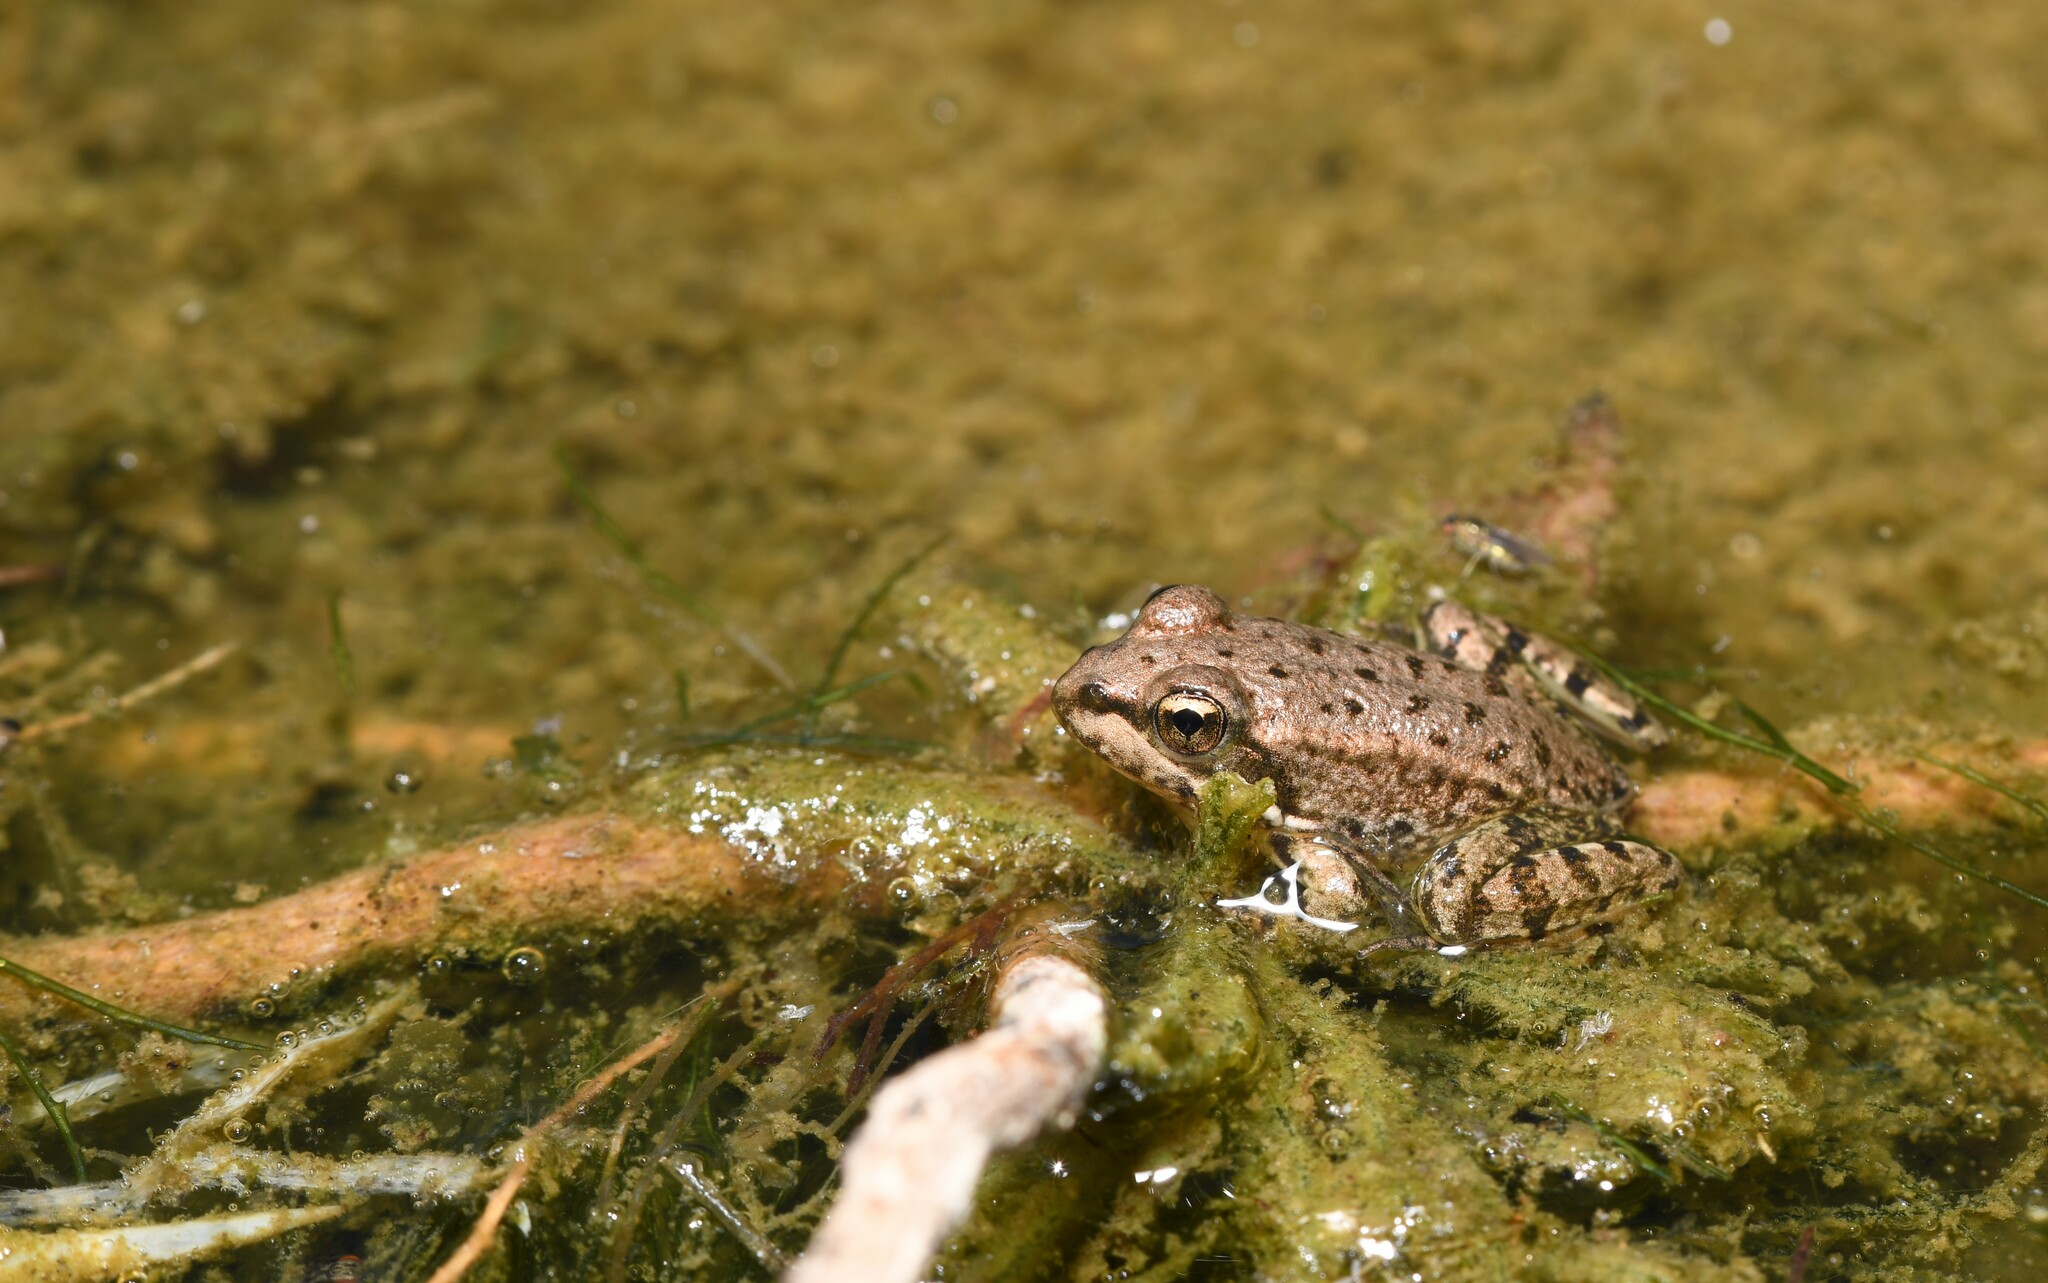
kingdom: Animalia
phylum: Chordata
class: Amphibia
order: Anura
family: Ranidae
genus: Pelophylax
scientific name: Pelophylax perezi
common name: Perez's frog
